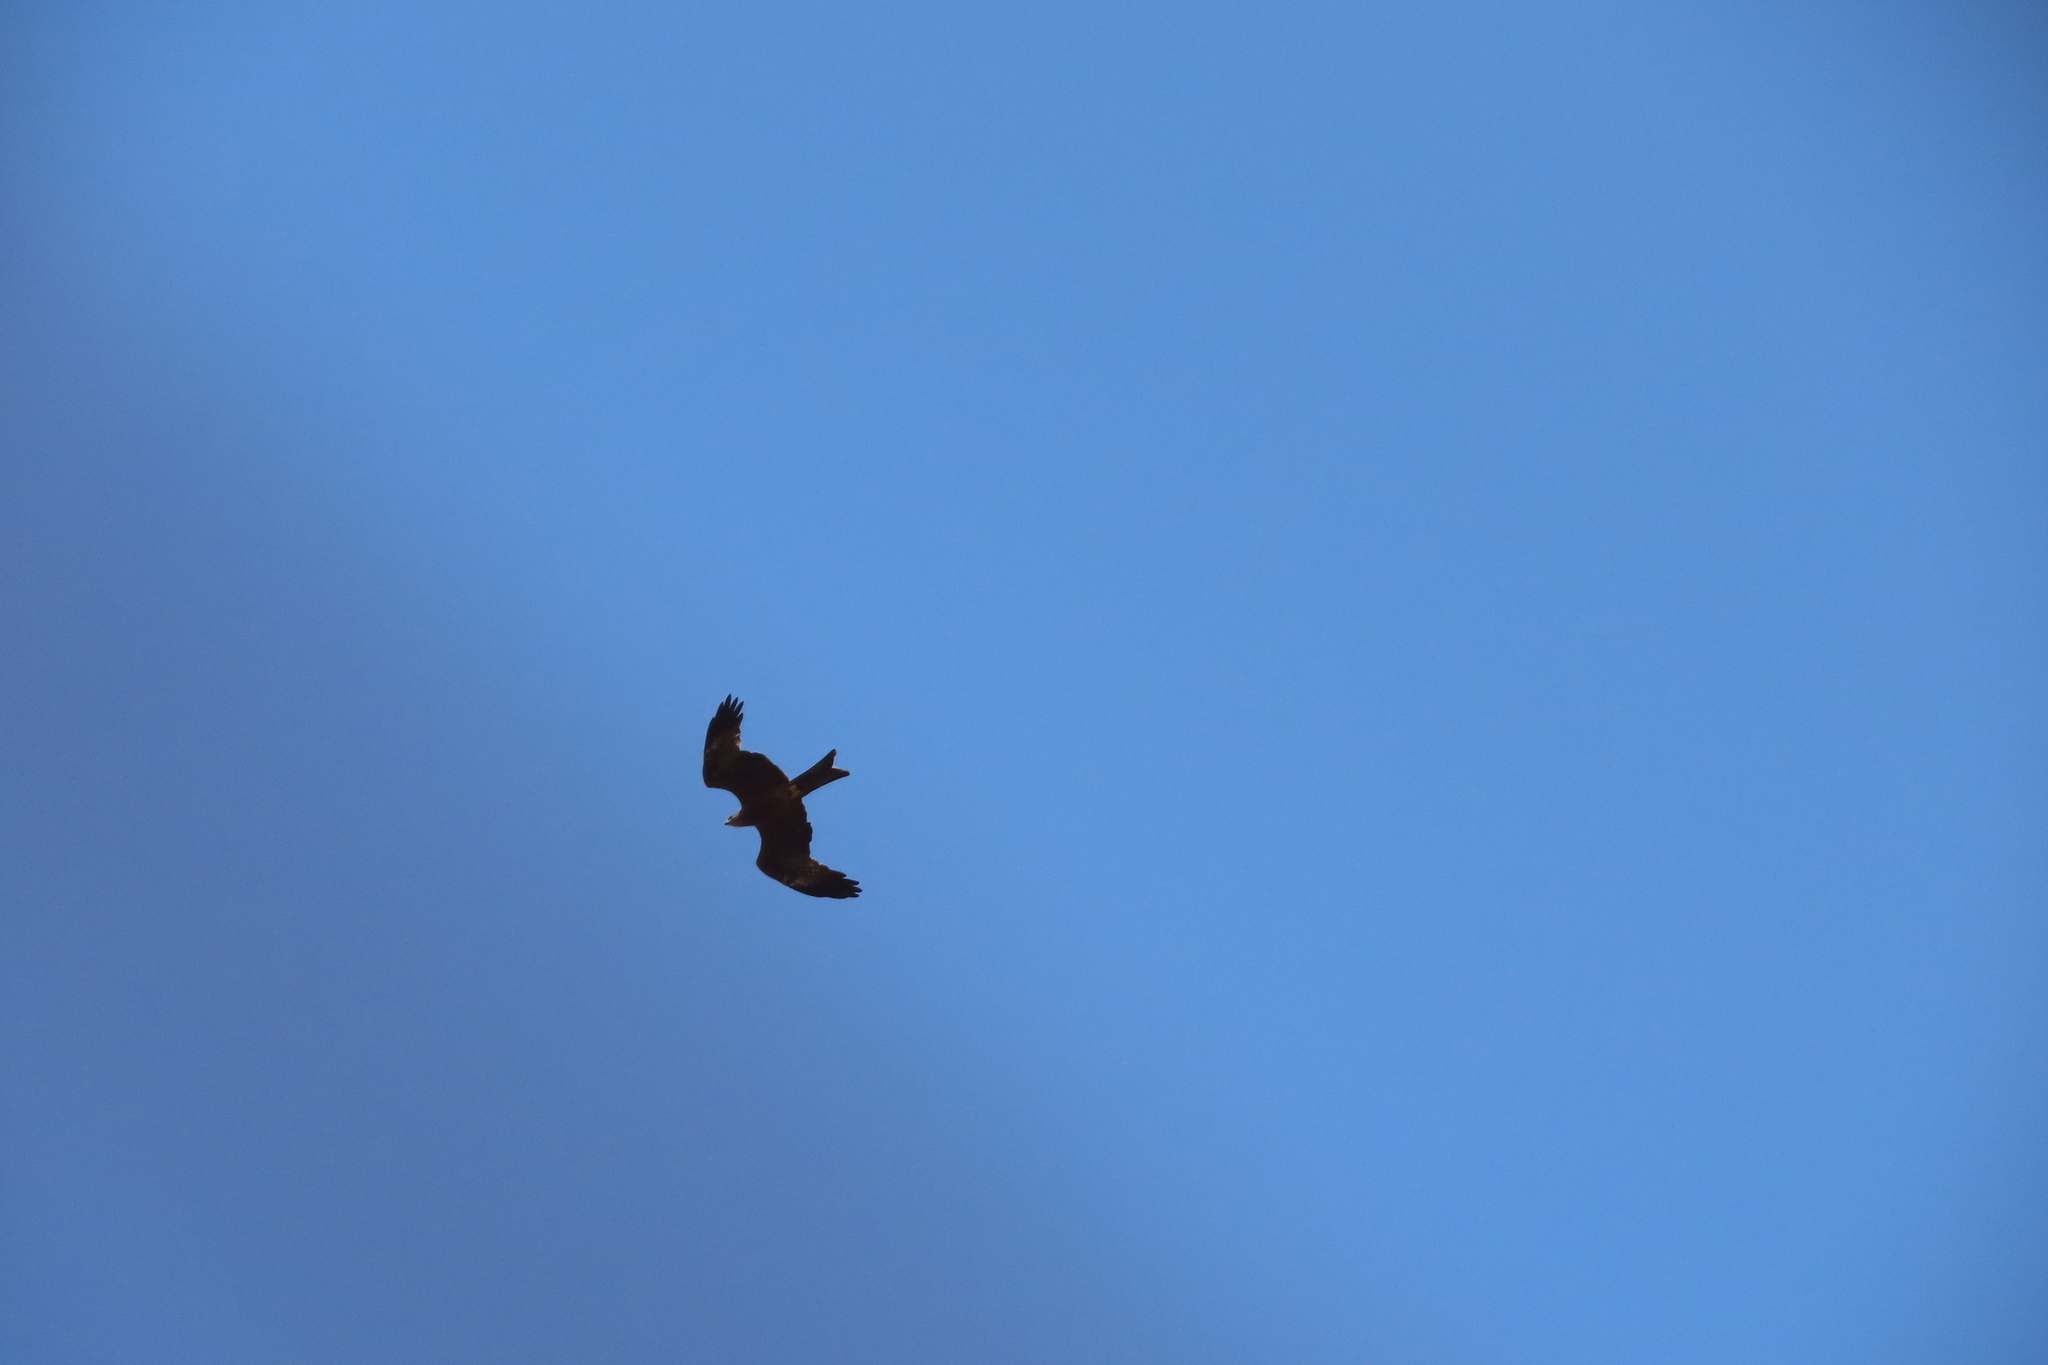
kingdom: Animalia
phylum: Chordata
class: Aves
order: Accipitriformes
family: Accipitridae
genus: Milvus
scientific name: Milvus migrans
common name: Black kite
